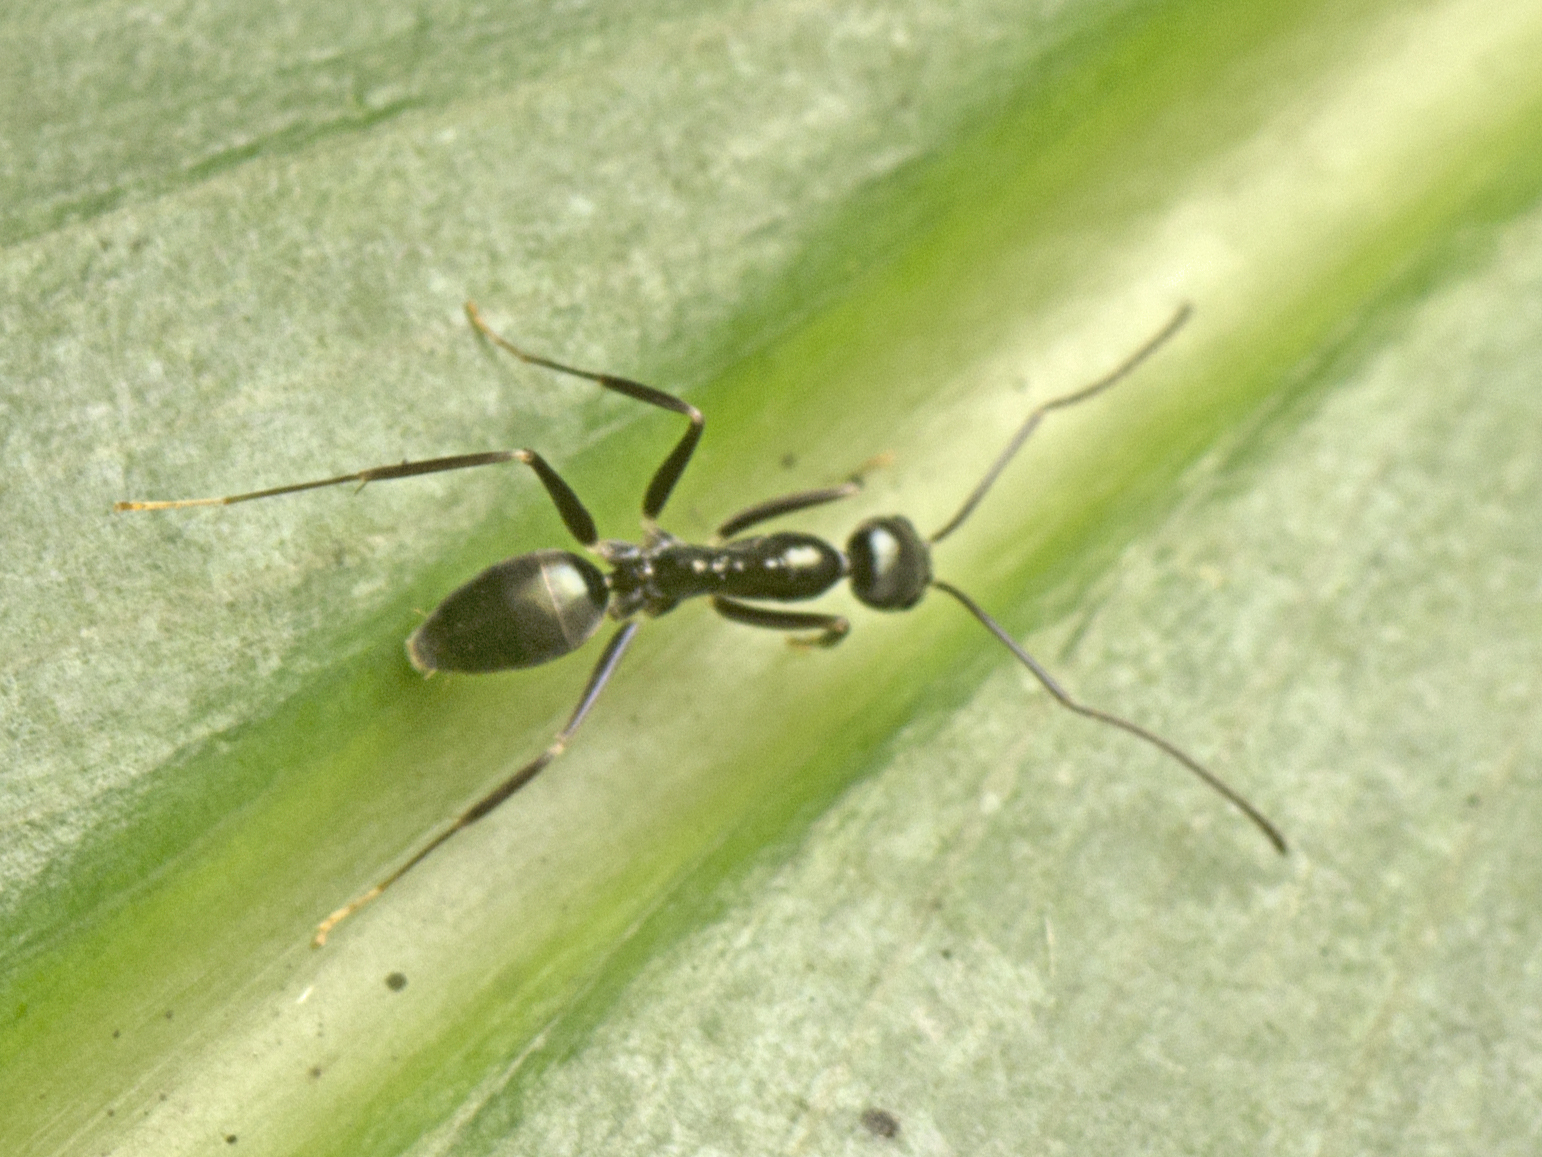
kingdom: Animalia
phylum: Arthropoda
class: Insecta
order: Hymenoptera
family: Formicidae
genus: Leptomyrmex
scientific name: Leptomyrmex burwelli
